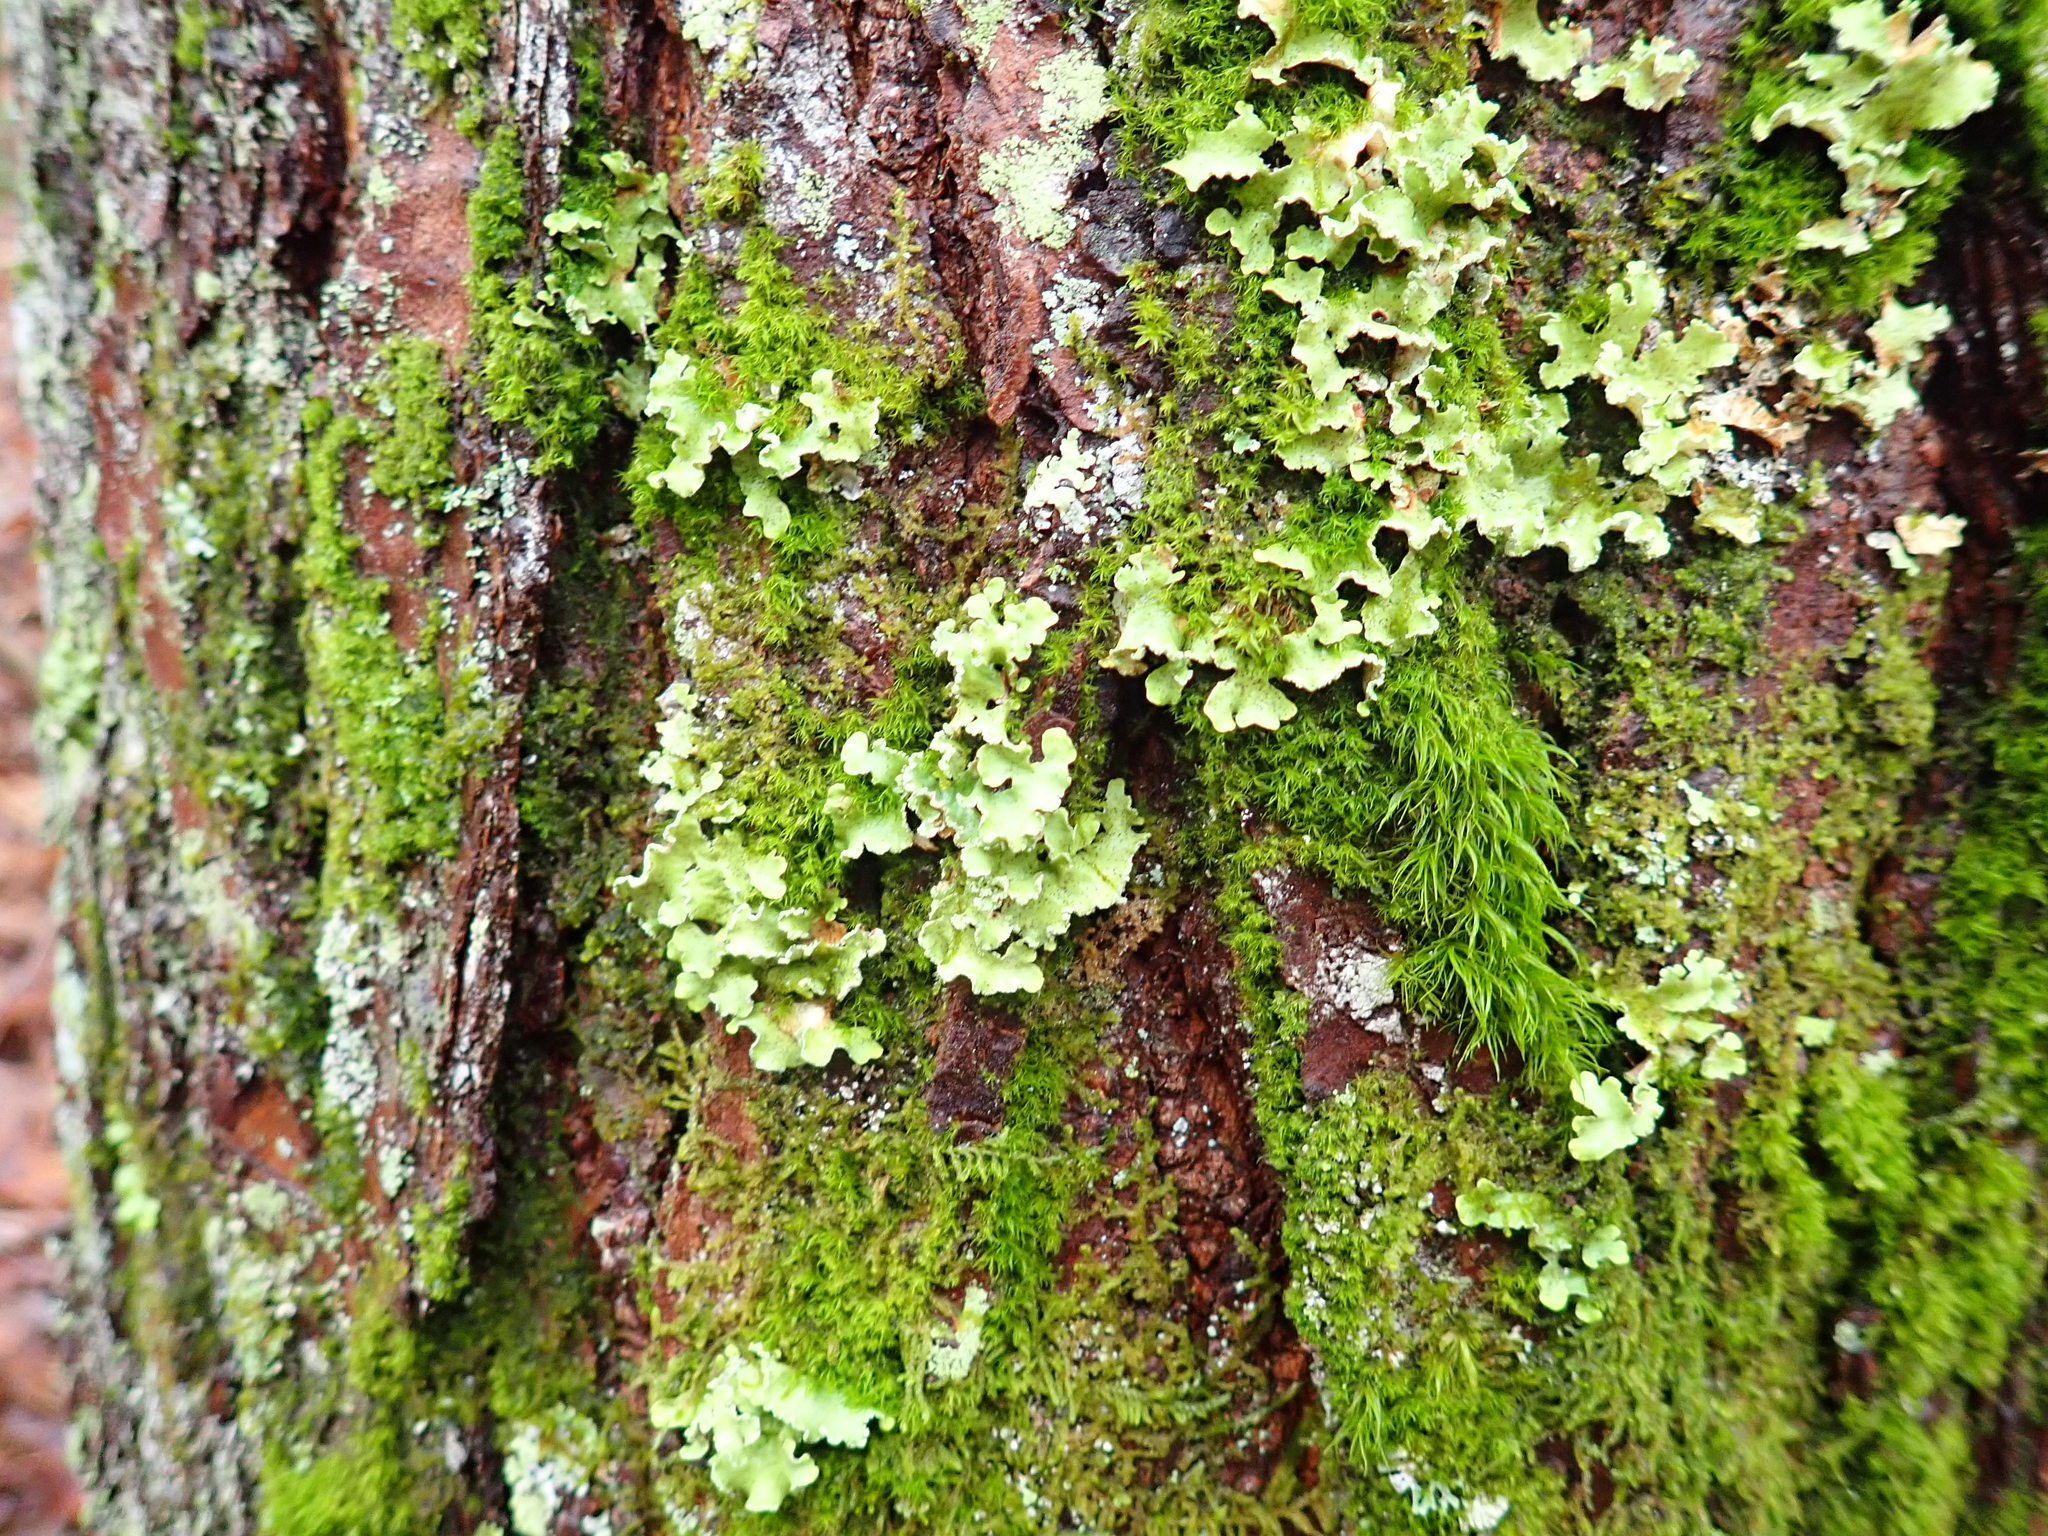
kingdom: Fungi
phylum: Ascomycota
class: Lecanoromycetes
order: Lecanorales
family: Parmeliaceae
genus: Usnocetraria
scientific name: Usnocetraria oakesiana
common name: Yellow ribbon lichen
